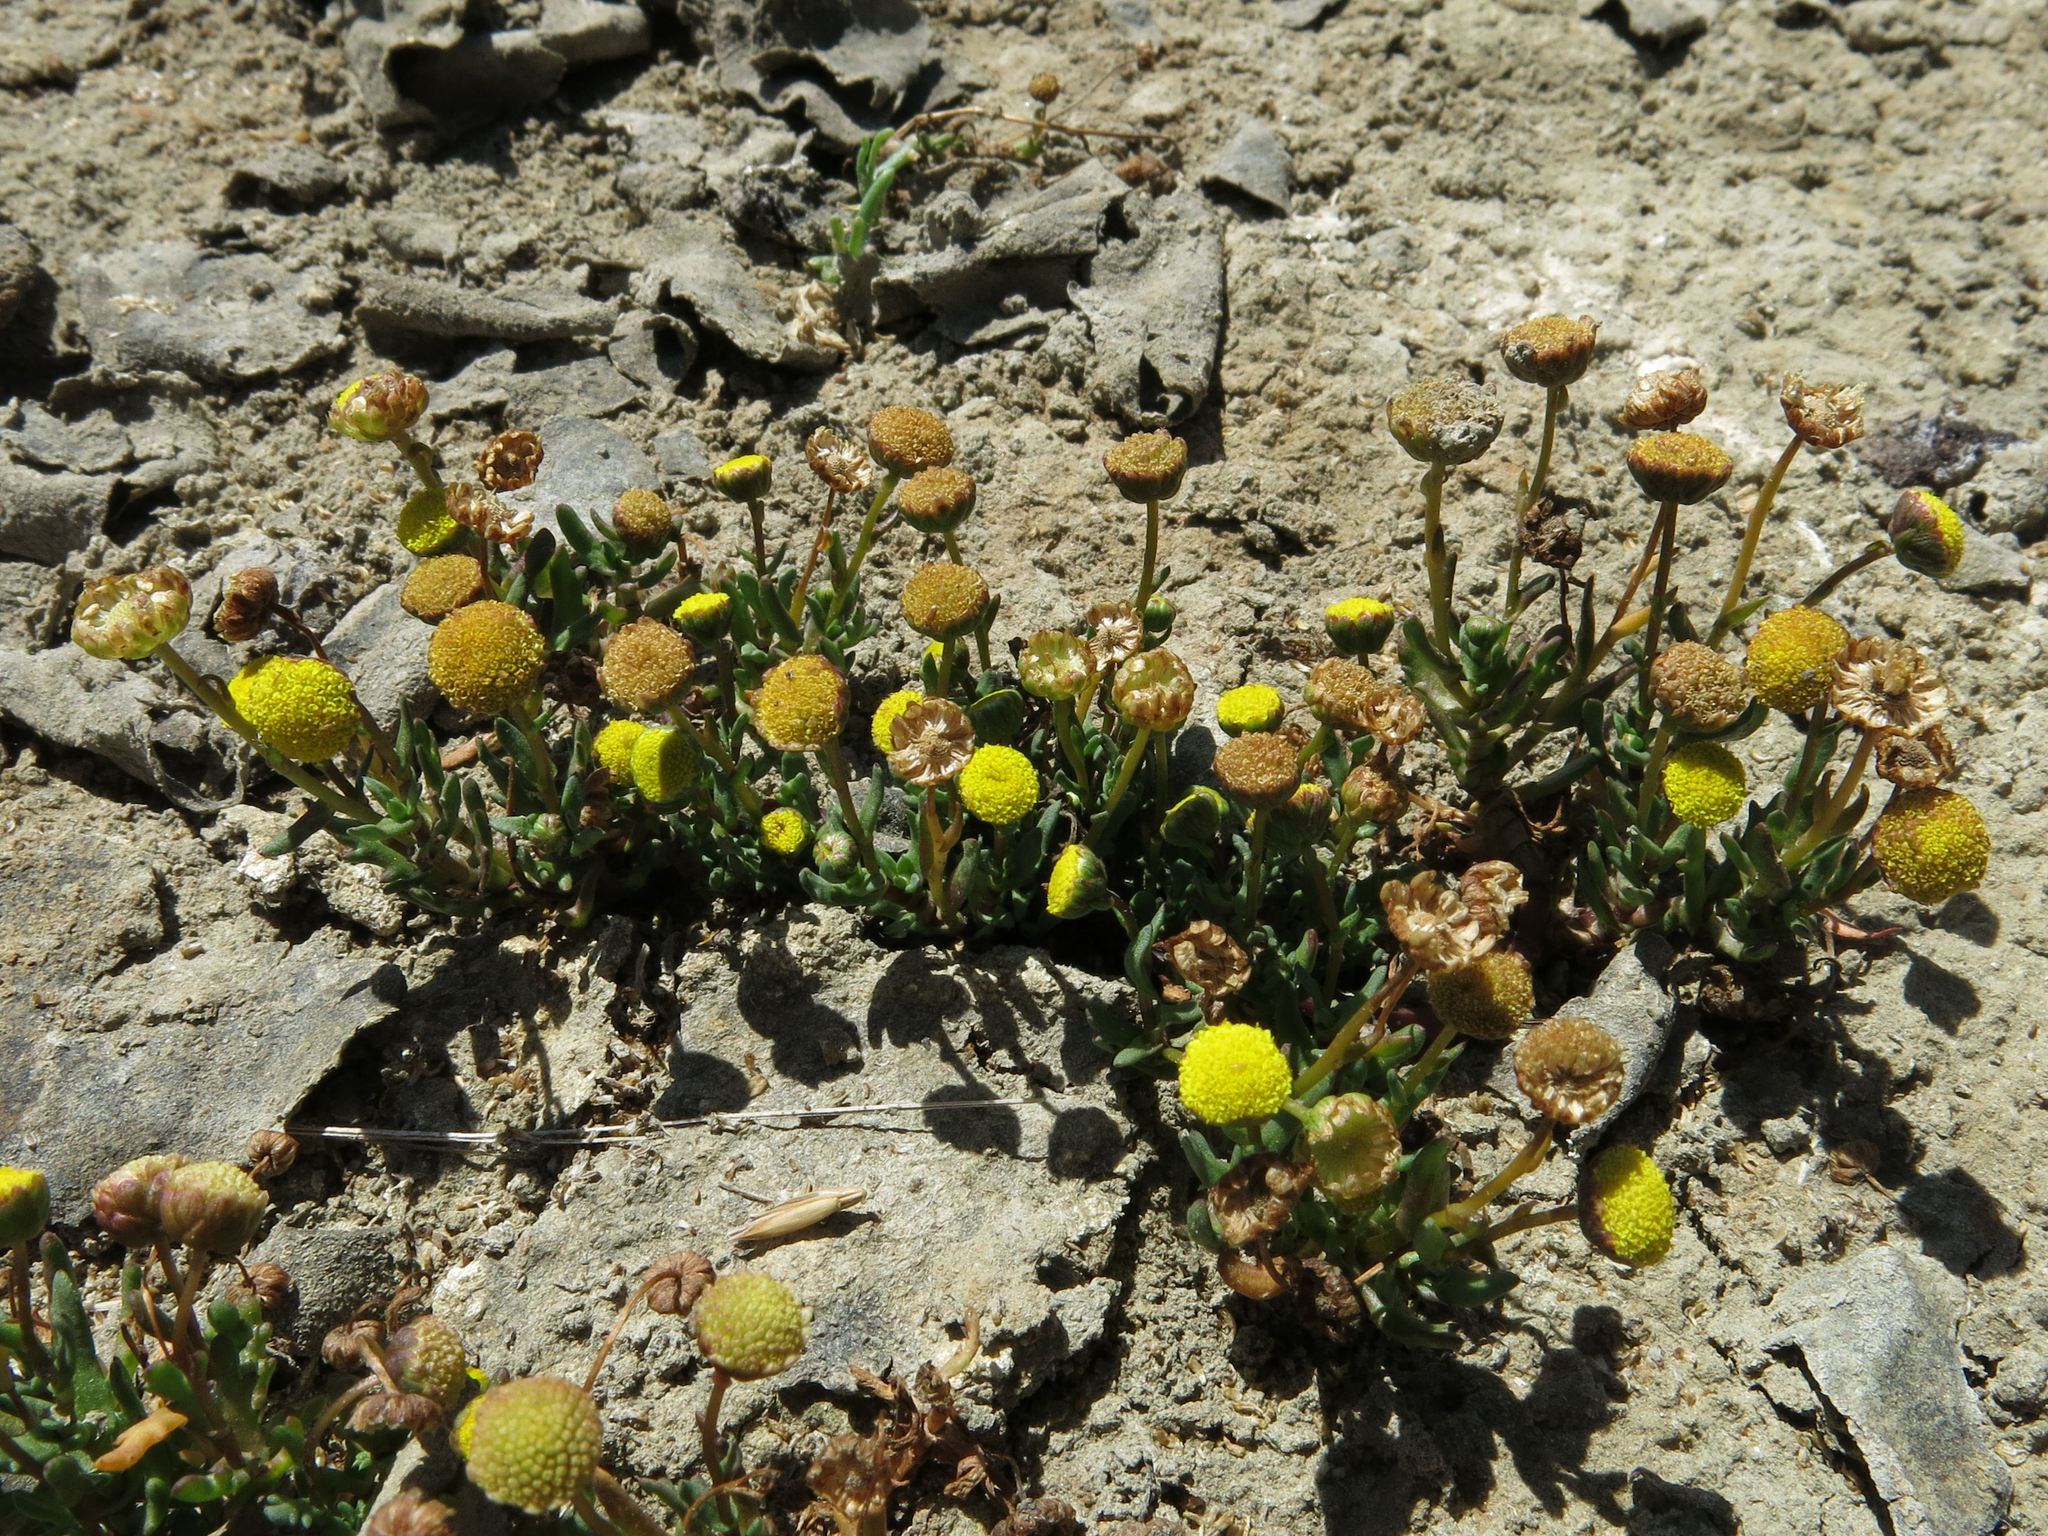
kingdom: Plantae
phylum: Tracheophyta
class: Magnoliopsida
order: Asterales
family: Asteraceae
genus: Cotula
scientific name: Cotula coronopifolia
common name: Buttonweed
